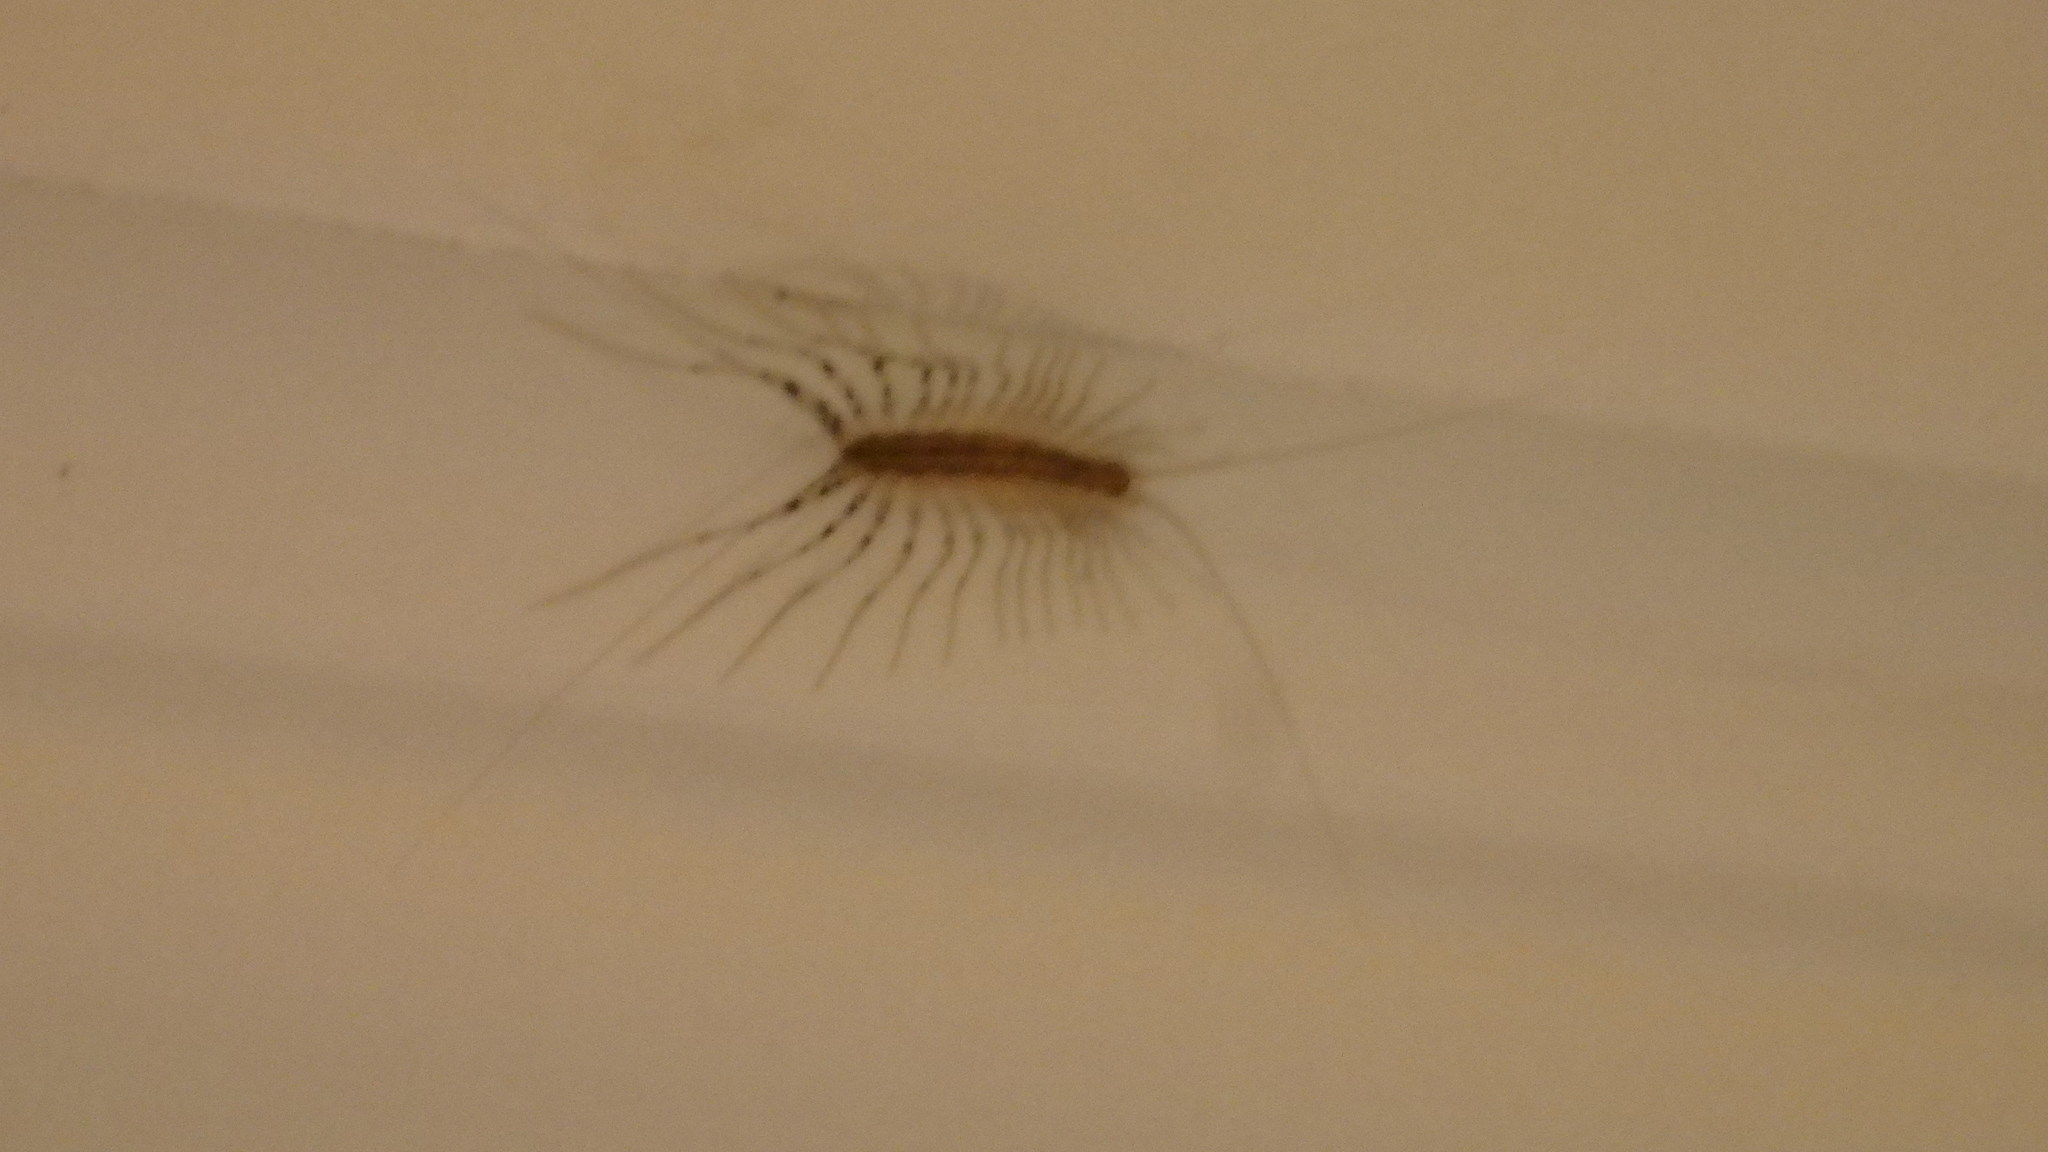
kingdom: Animalia
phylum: Arthropoda
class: Chilopoda
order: Scutigeromorpha
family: Scutigeridae
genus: Scutigera
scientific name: Scutigera coleoptrata
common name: House centipede
